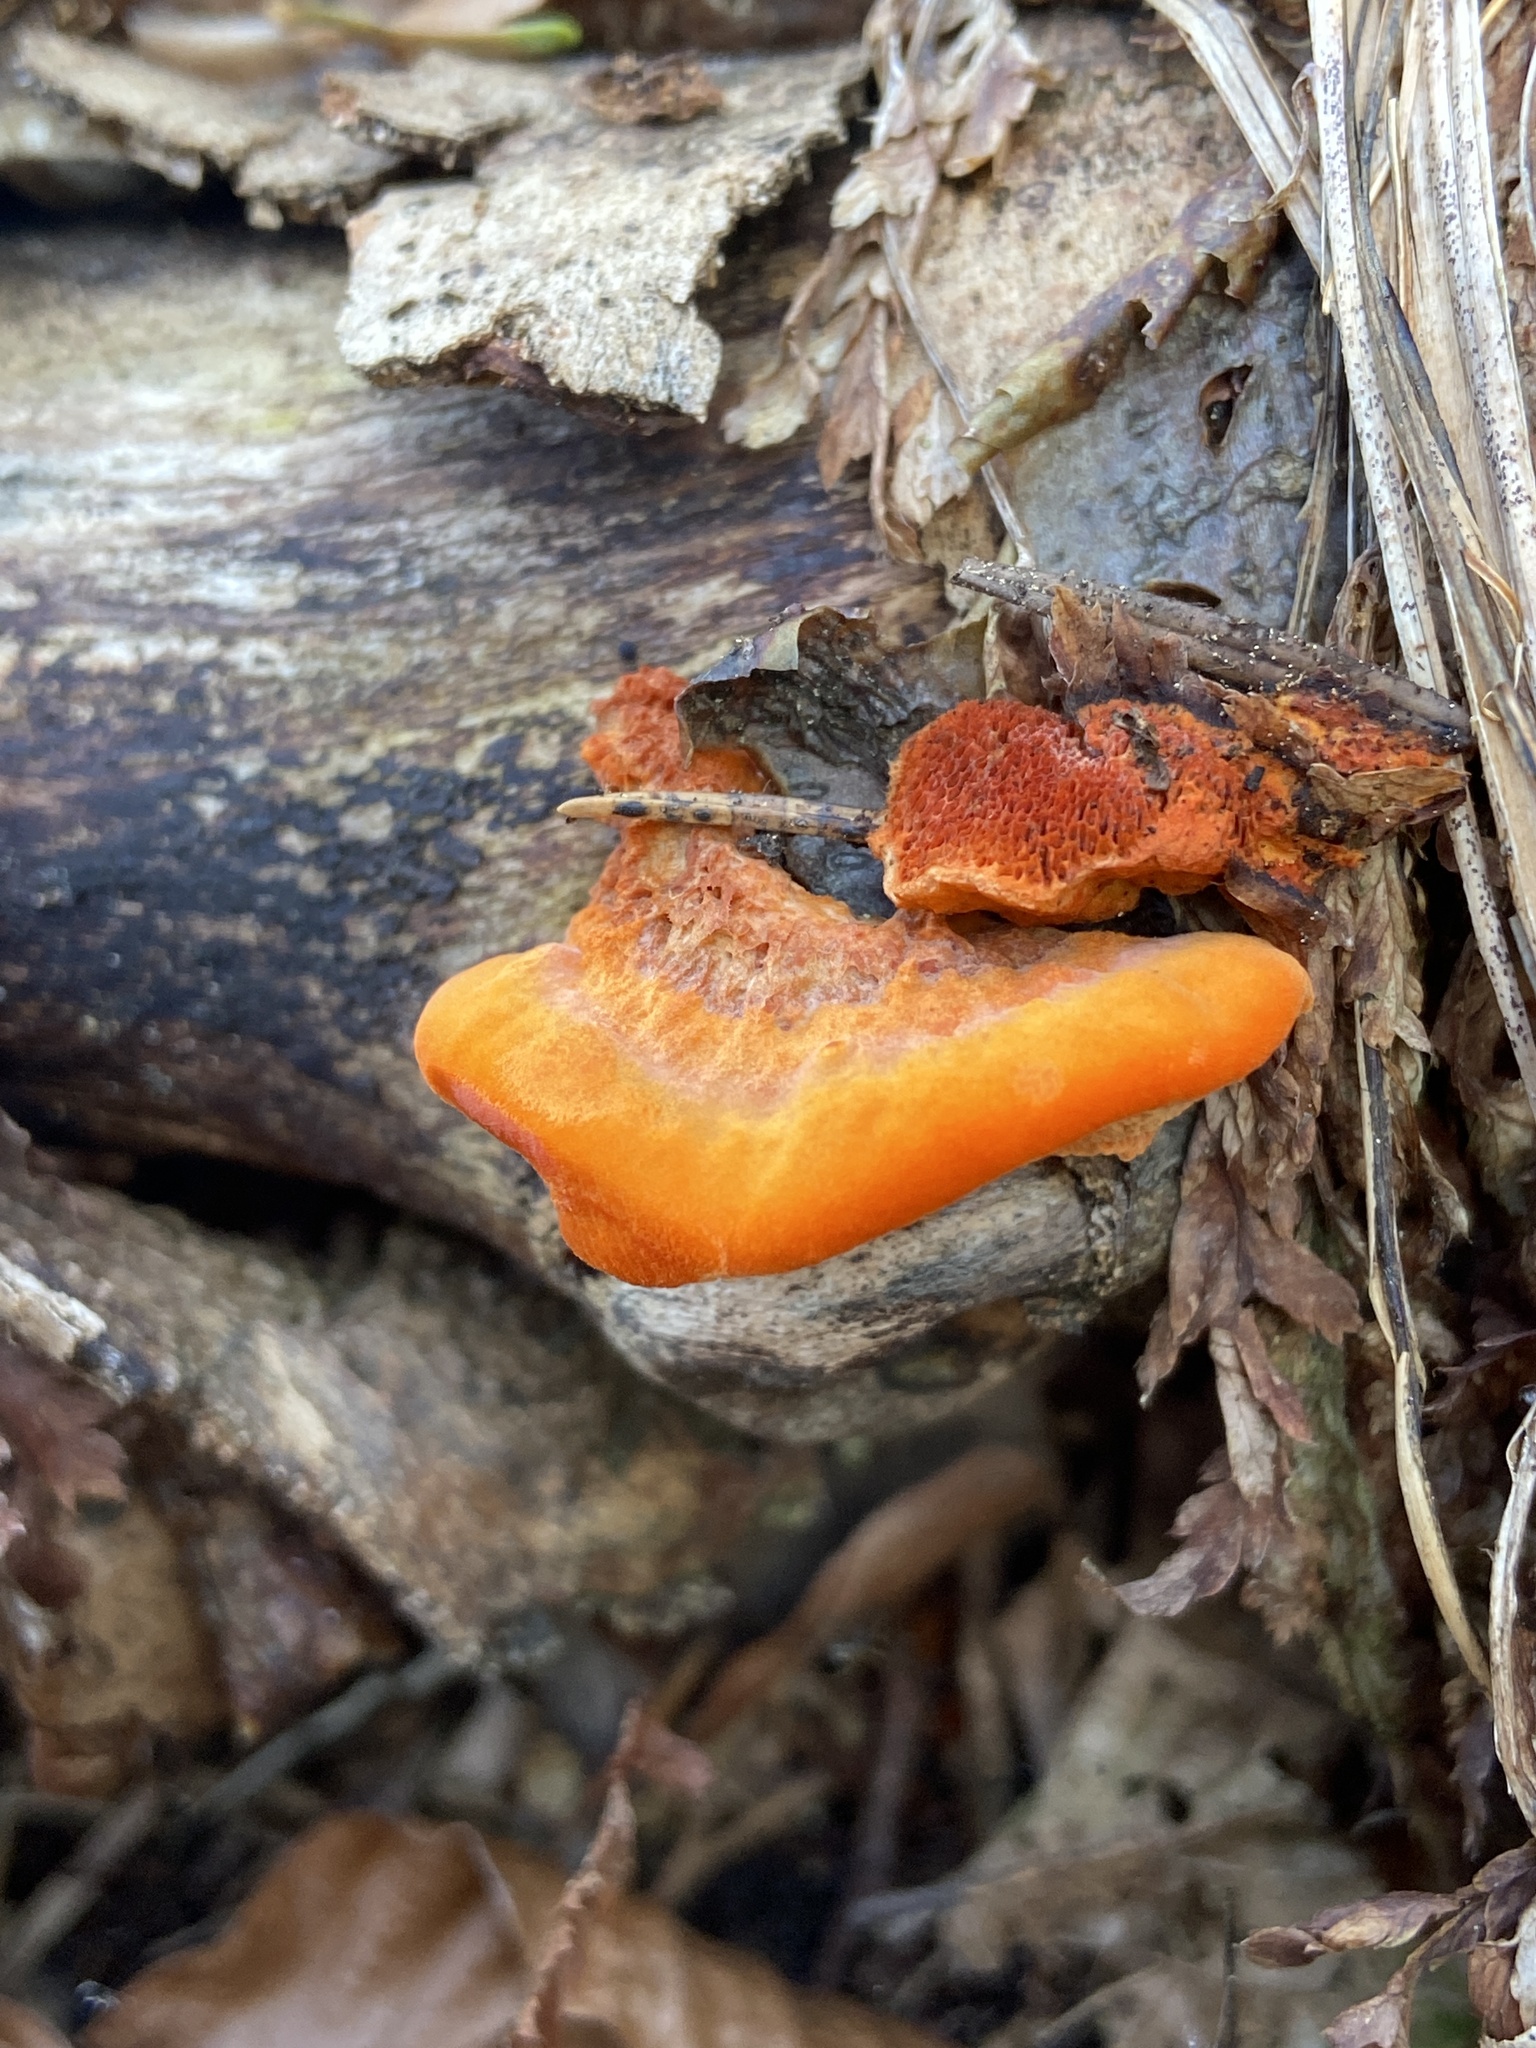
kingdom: Fungi
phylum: Basidiomycota
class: Agaricomycetes
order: Polyporales
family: Polyporaceae
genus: Trametes
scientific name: Trametes cinnabarina
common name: Northern cinnabar polypore
